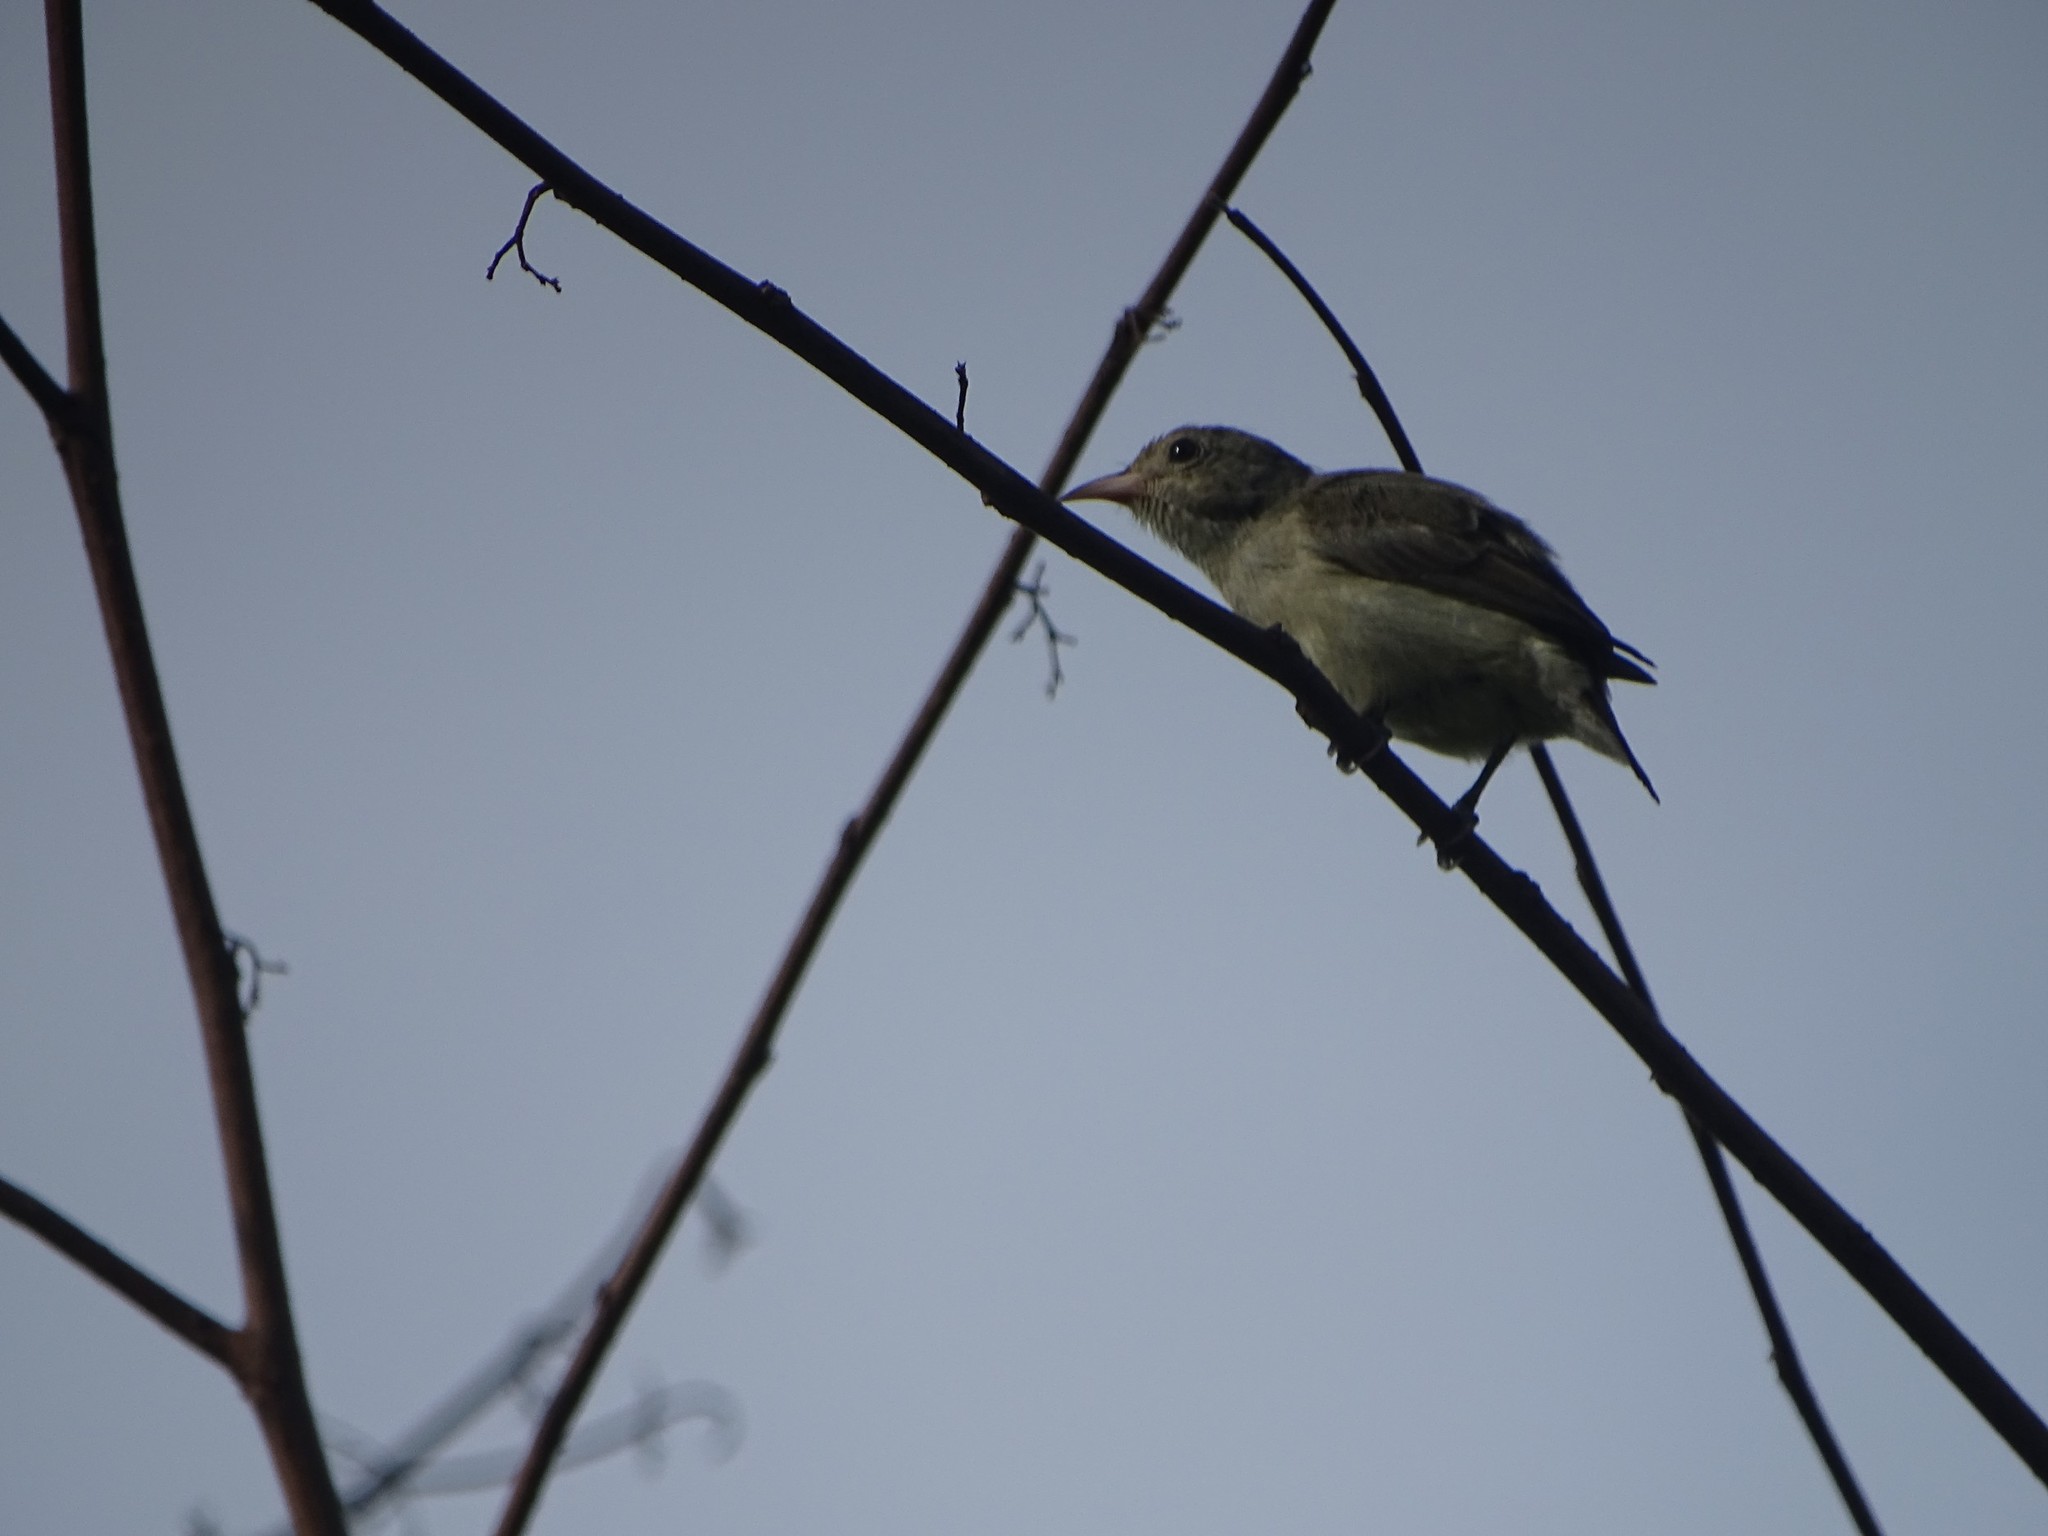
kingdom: Animalia
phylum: Chordata
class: Aves
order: Passeriformes
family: Dicaeidae
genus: Dicaeum
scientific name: Dicaeum erythrorhynchos
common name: Pale-billed flowerpecker
